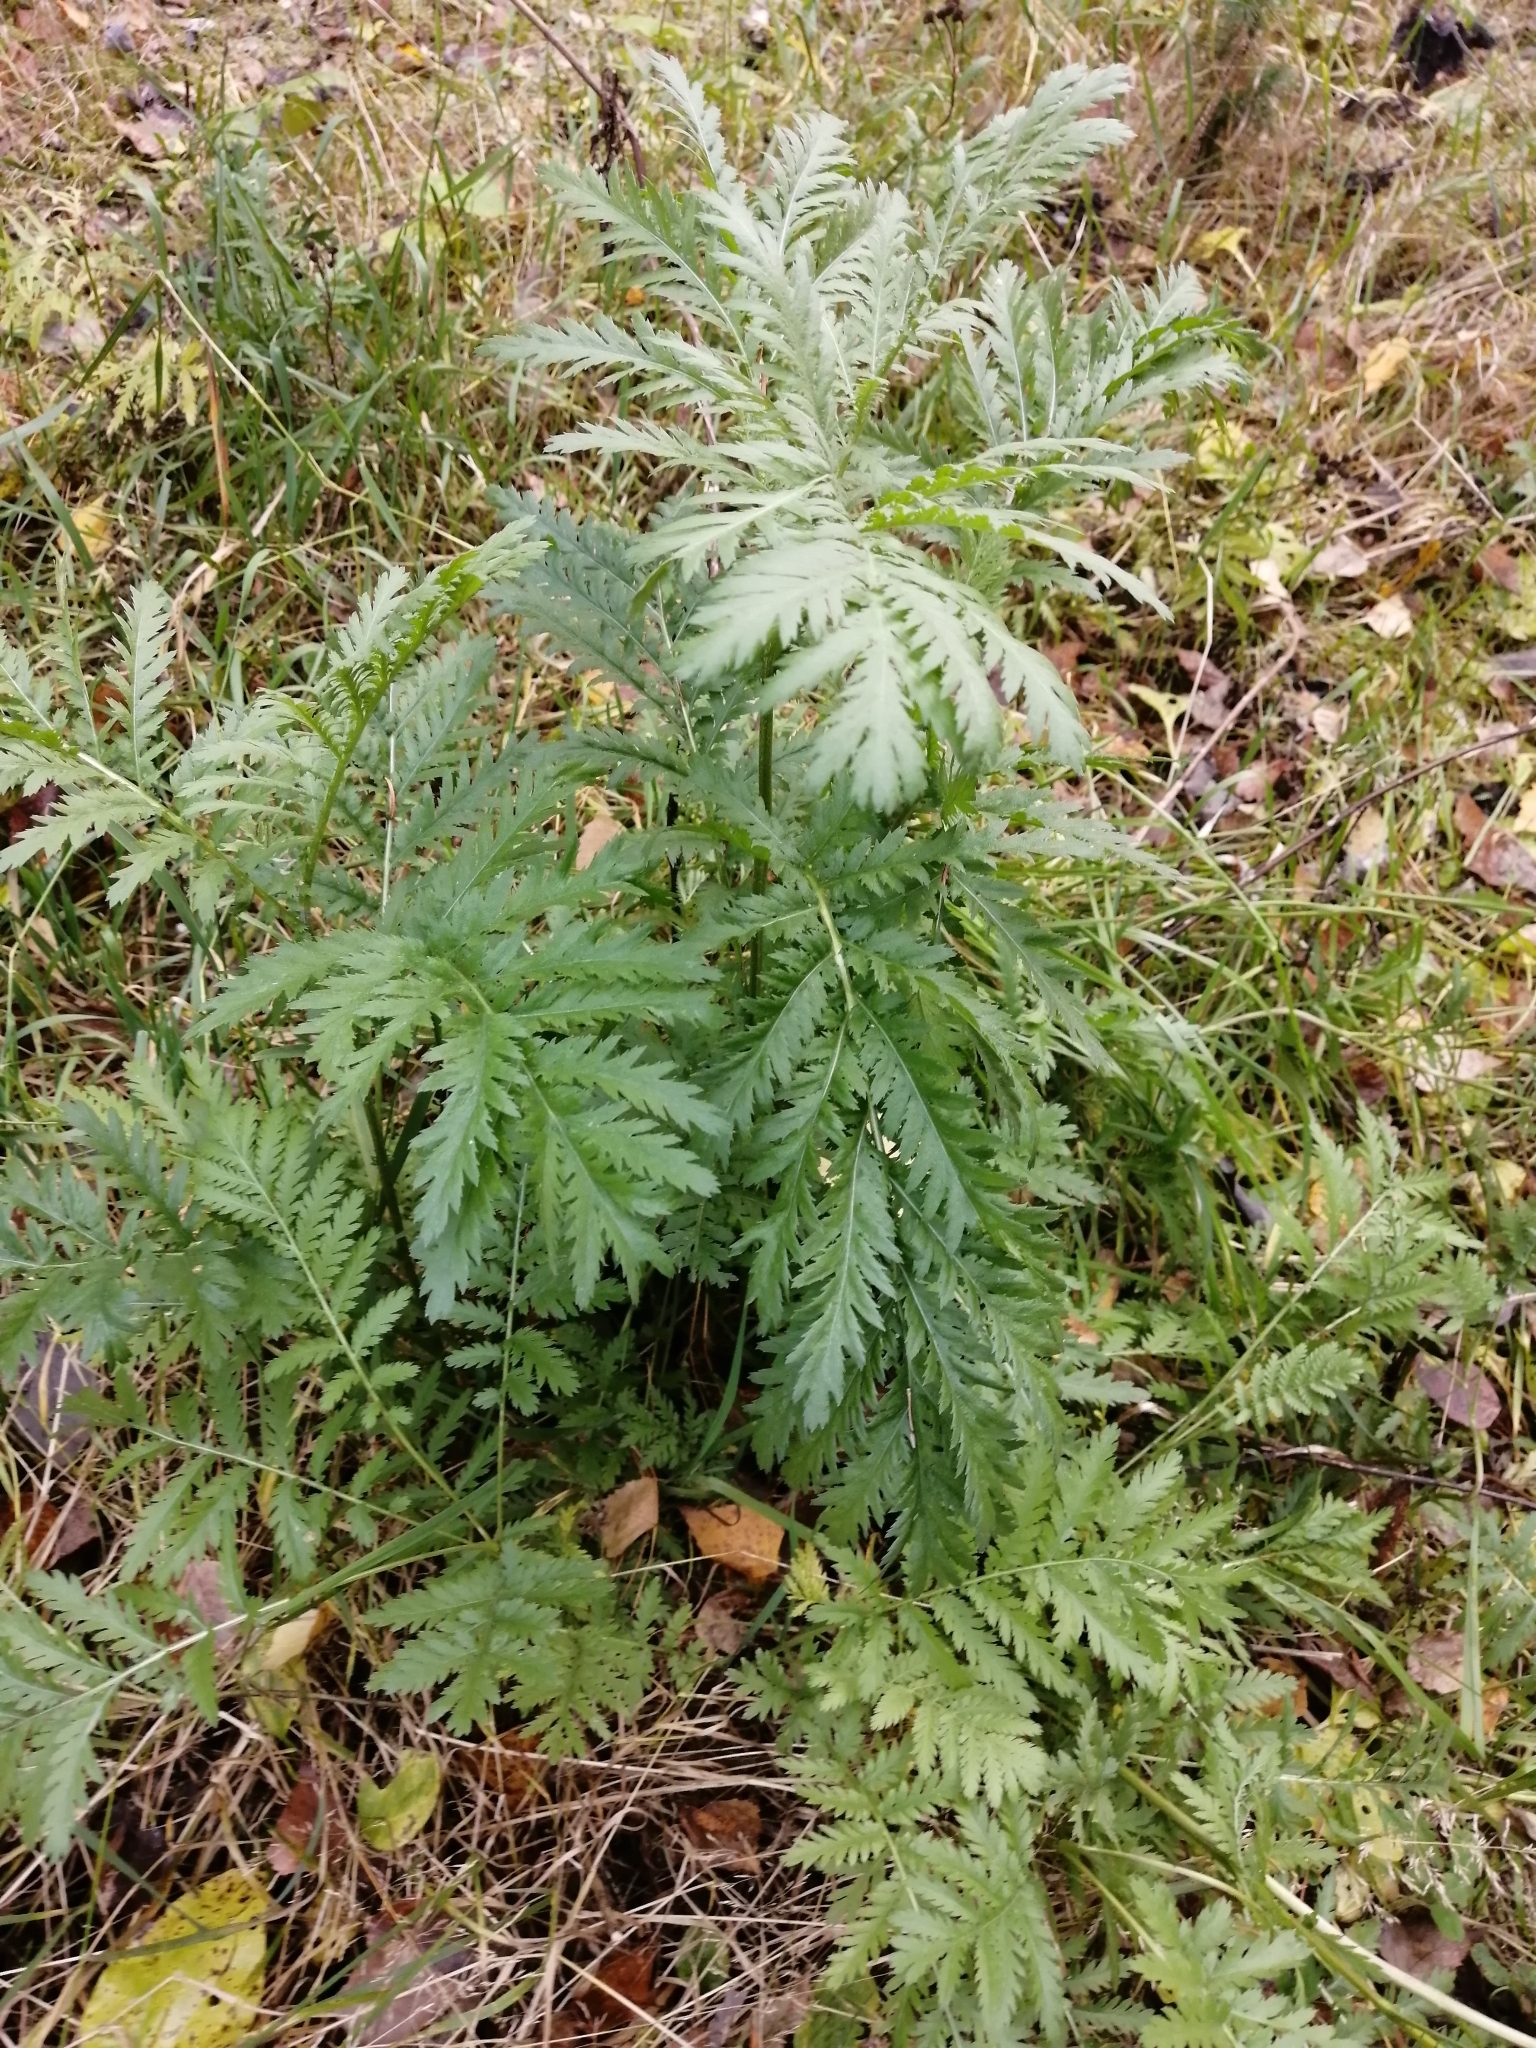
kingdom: Plantae
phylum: Tracheophyta
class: Magnoliopsida
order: Asterales
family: Asteraceae
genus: Tanacetum
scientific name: Tanacetum vulgare
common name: Common tansy
